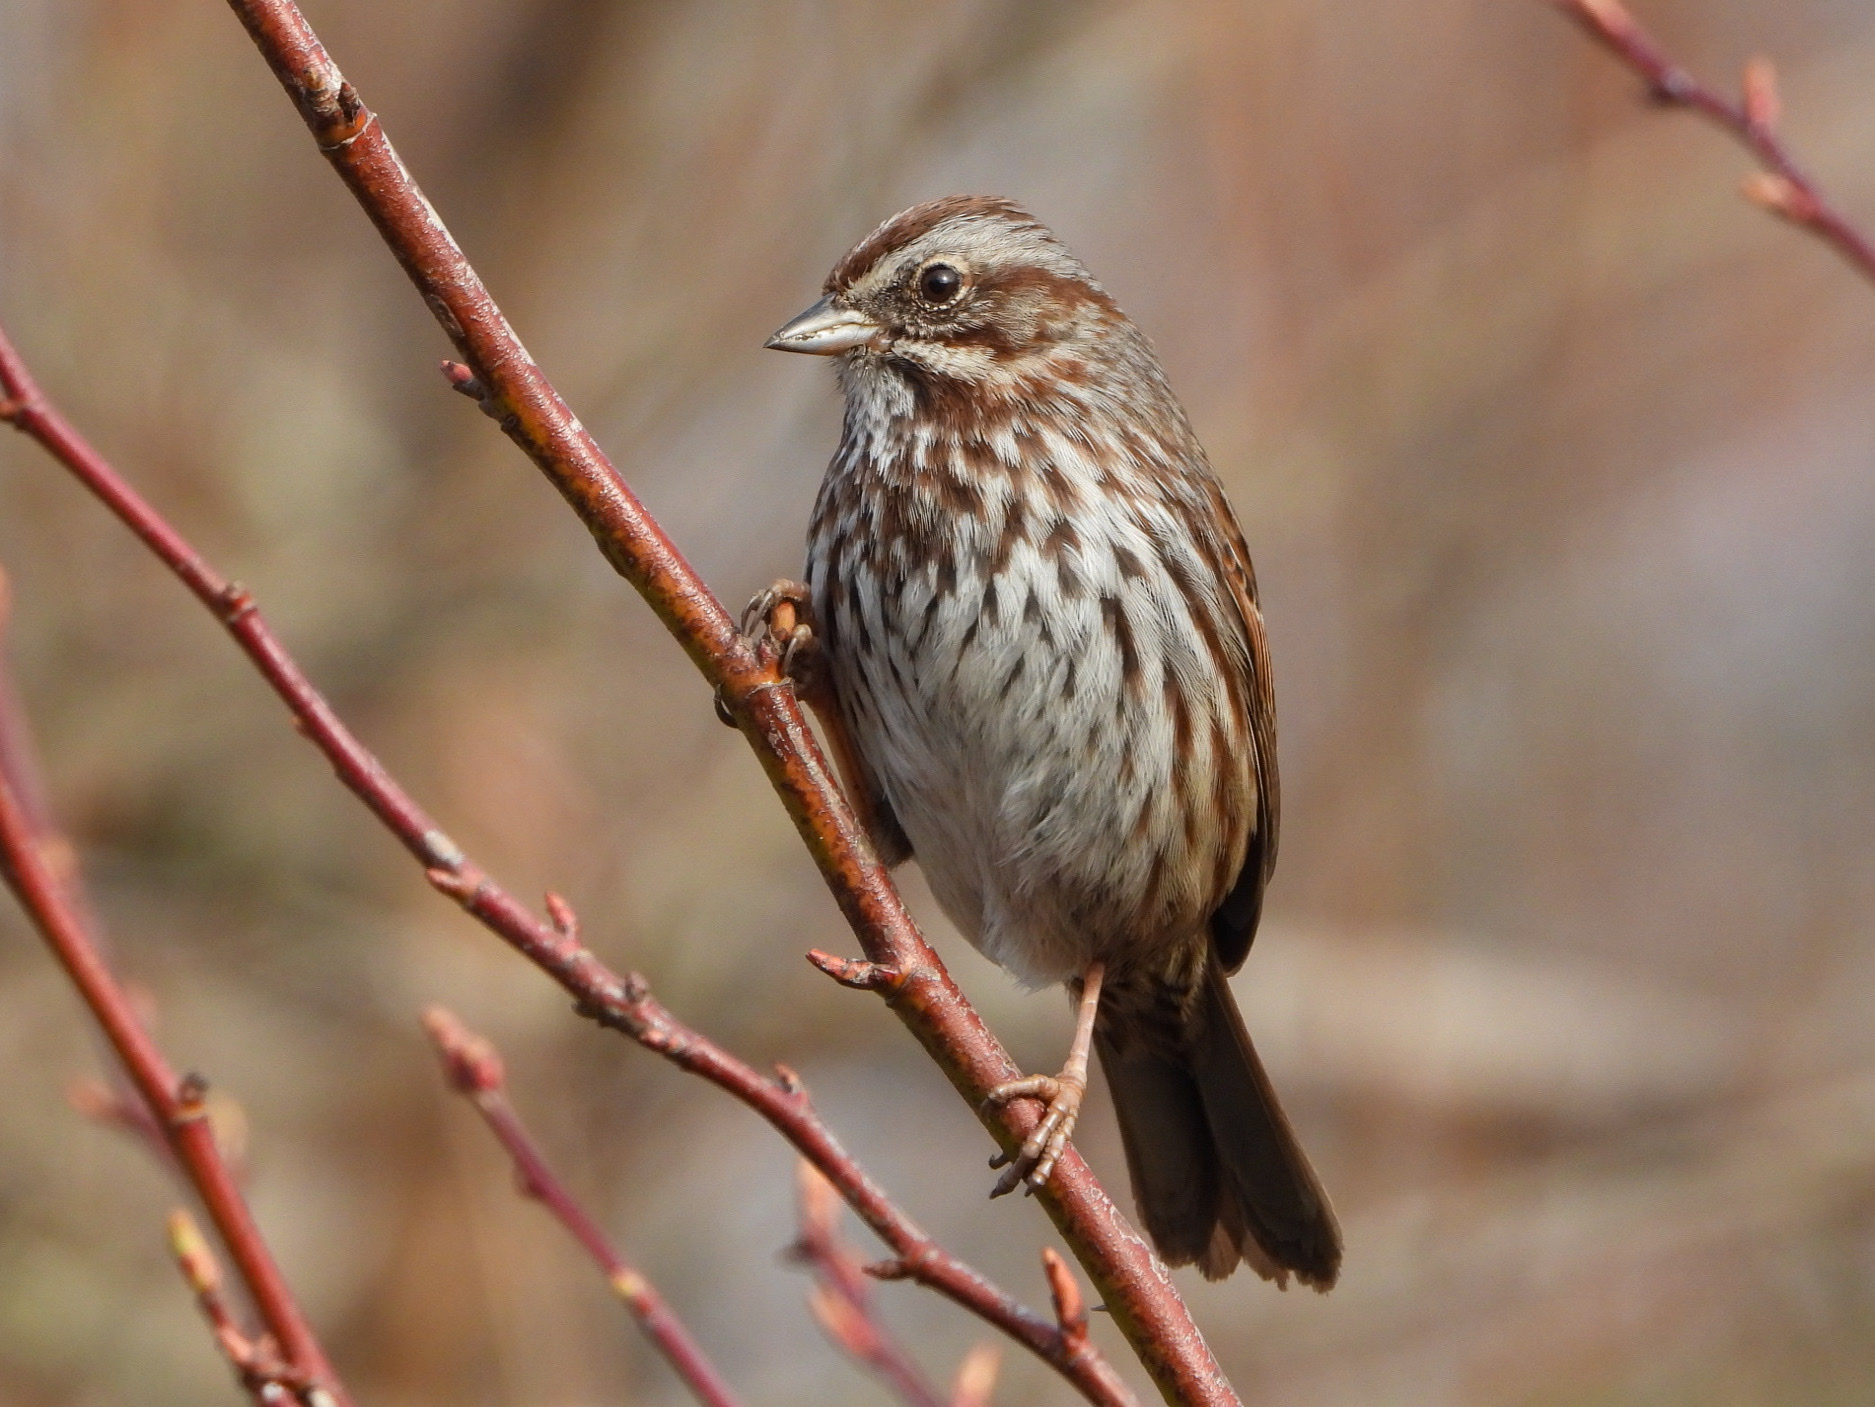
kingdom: Animalia
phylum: Chordata
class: Aves
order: Passeriformes
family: Passerellidae
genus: Melospiza
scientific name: Melospiza melodia
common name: Song sparrow
